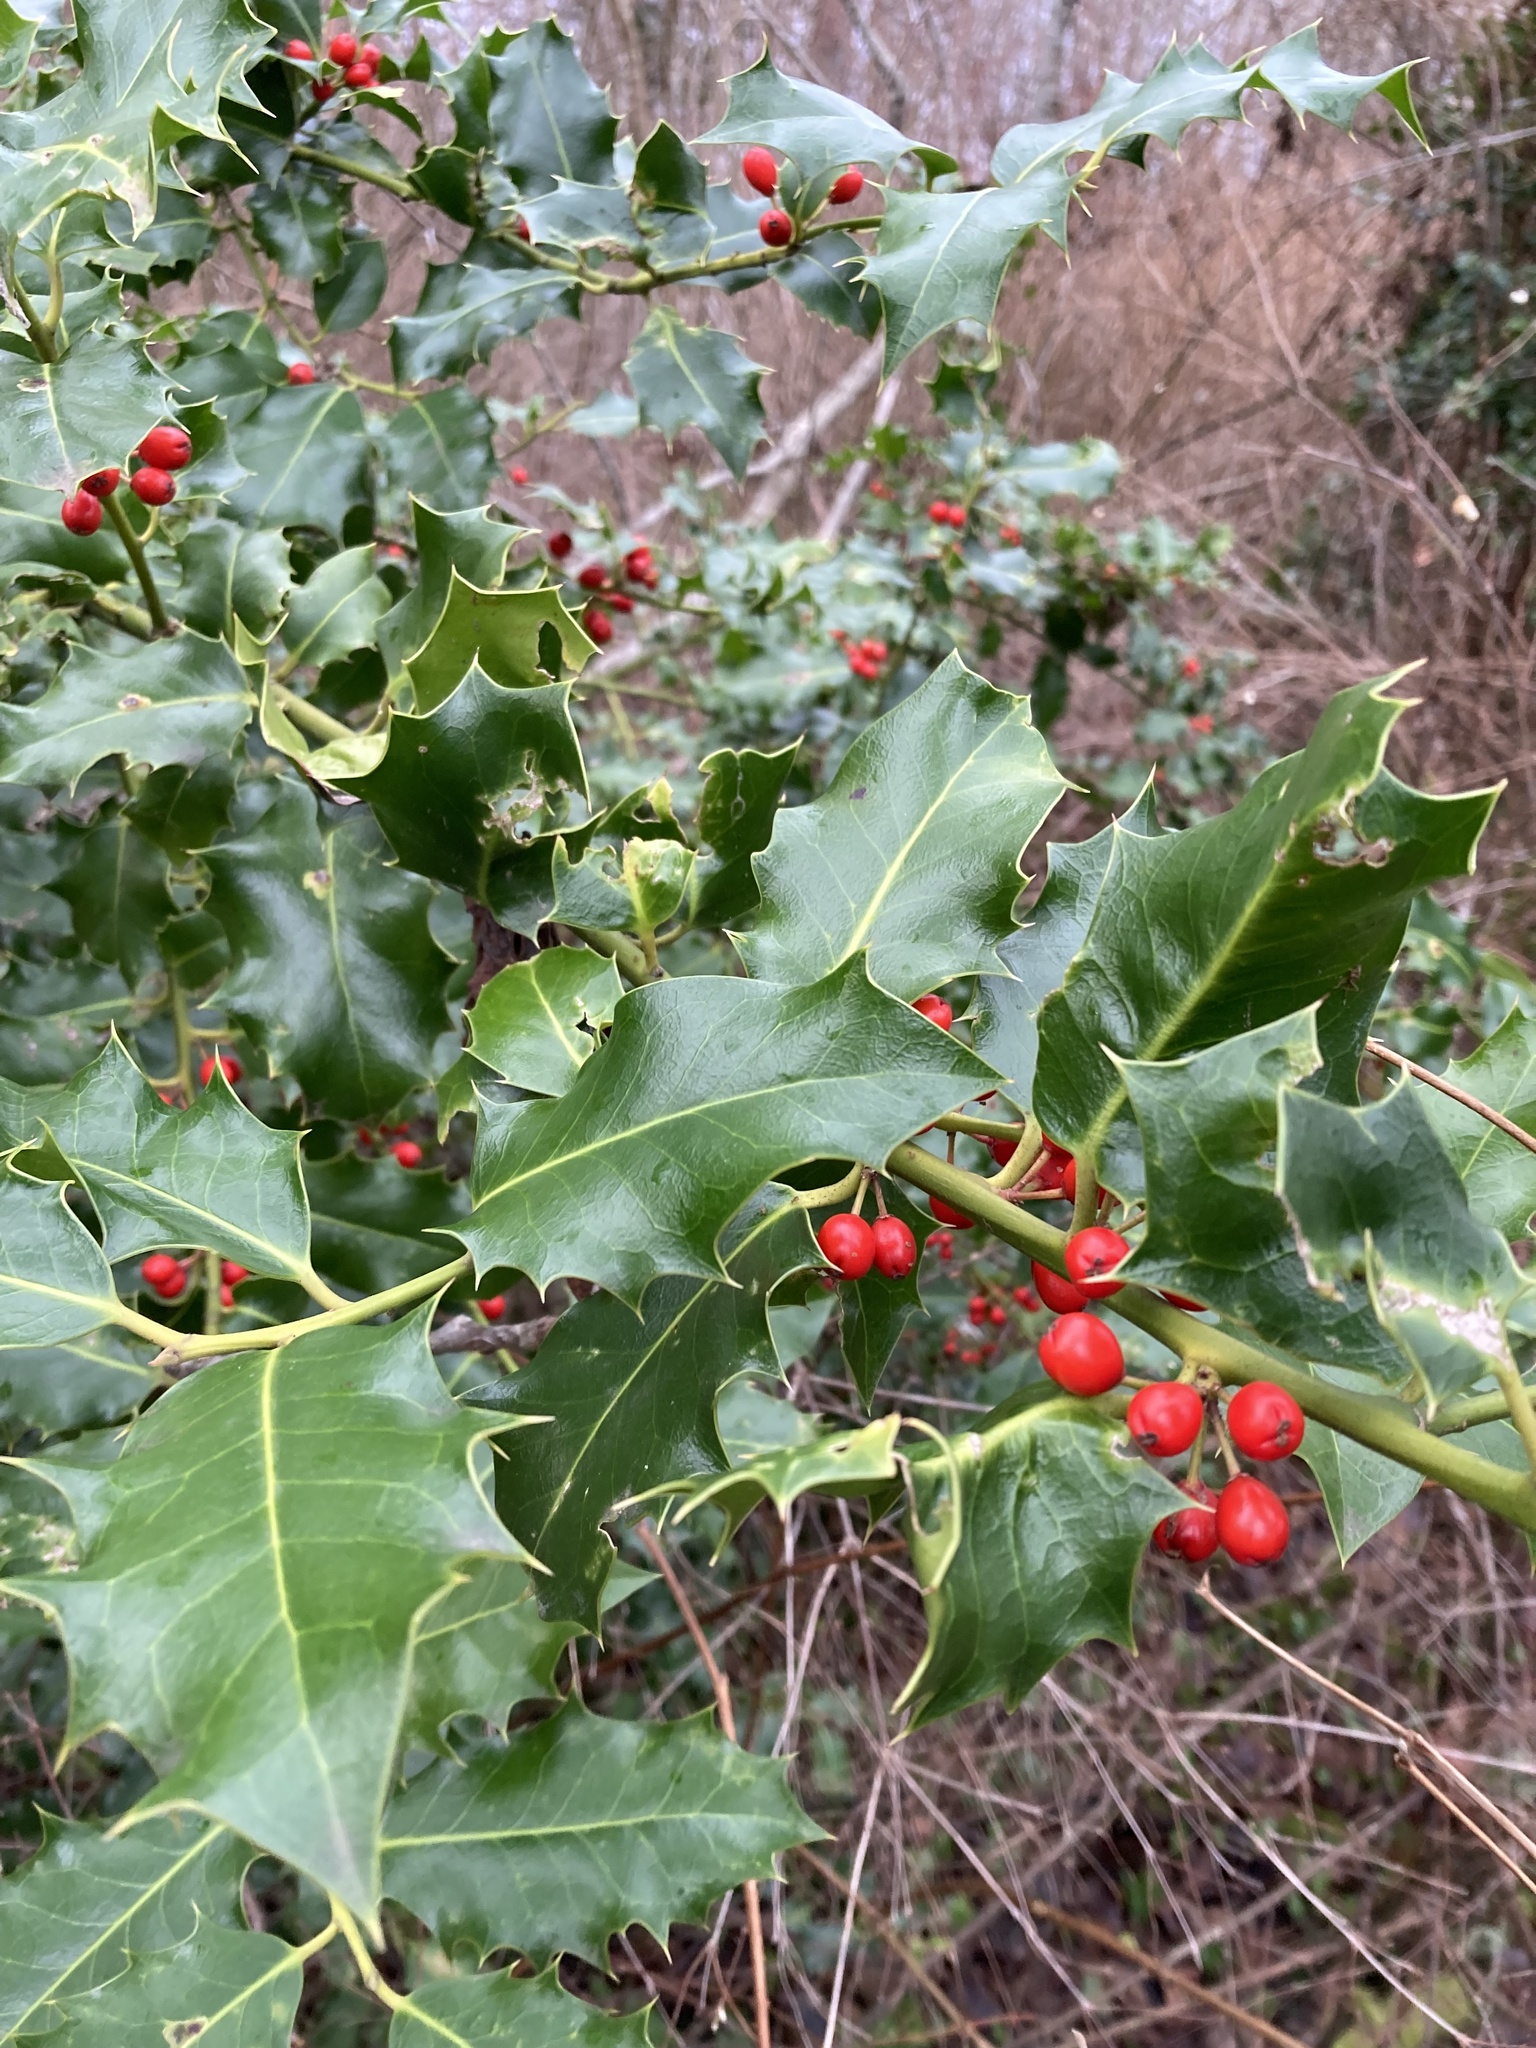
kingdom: Plantae
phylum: Tracheophyta
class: Magnoliopsida
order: Aquifoliales
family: Aquifoliaceae
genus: Ilex
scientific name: Ilex aquifolium
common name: English holly
